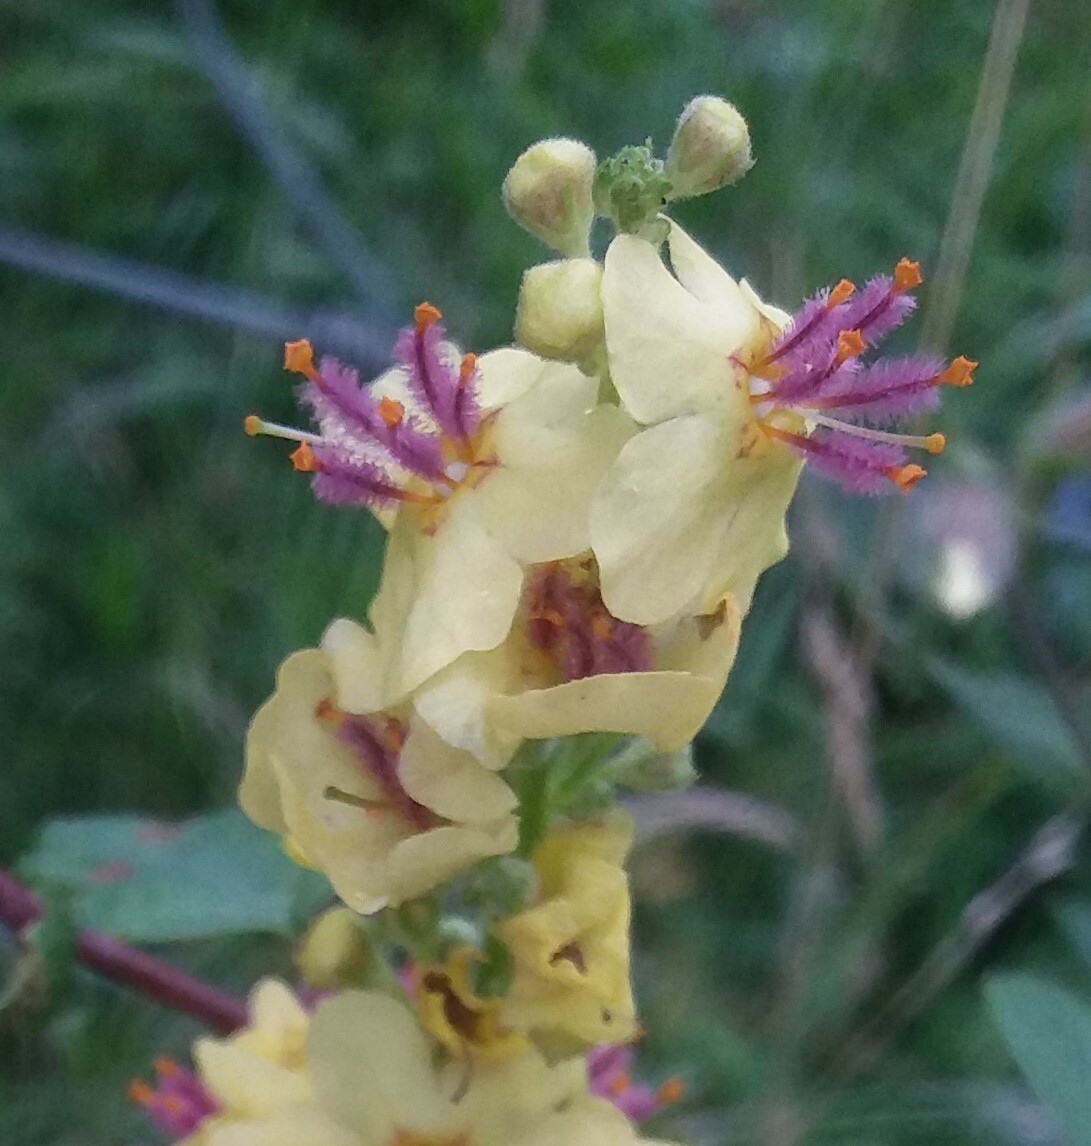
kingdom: Plantae
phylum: Tracheophyta
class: Magnoliopsida
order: Lamiales
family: Scrophulariaceae
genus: Verbascum
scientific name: Verbascum nigrum
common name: Dark mullein
